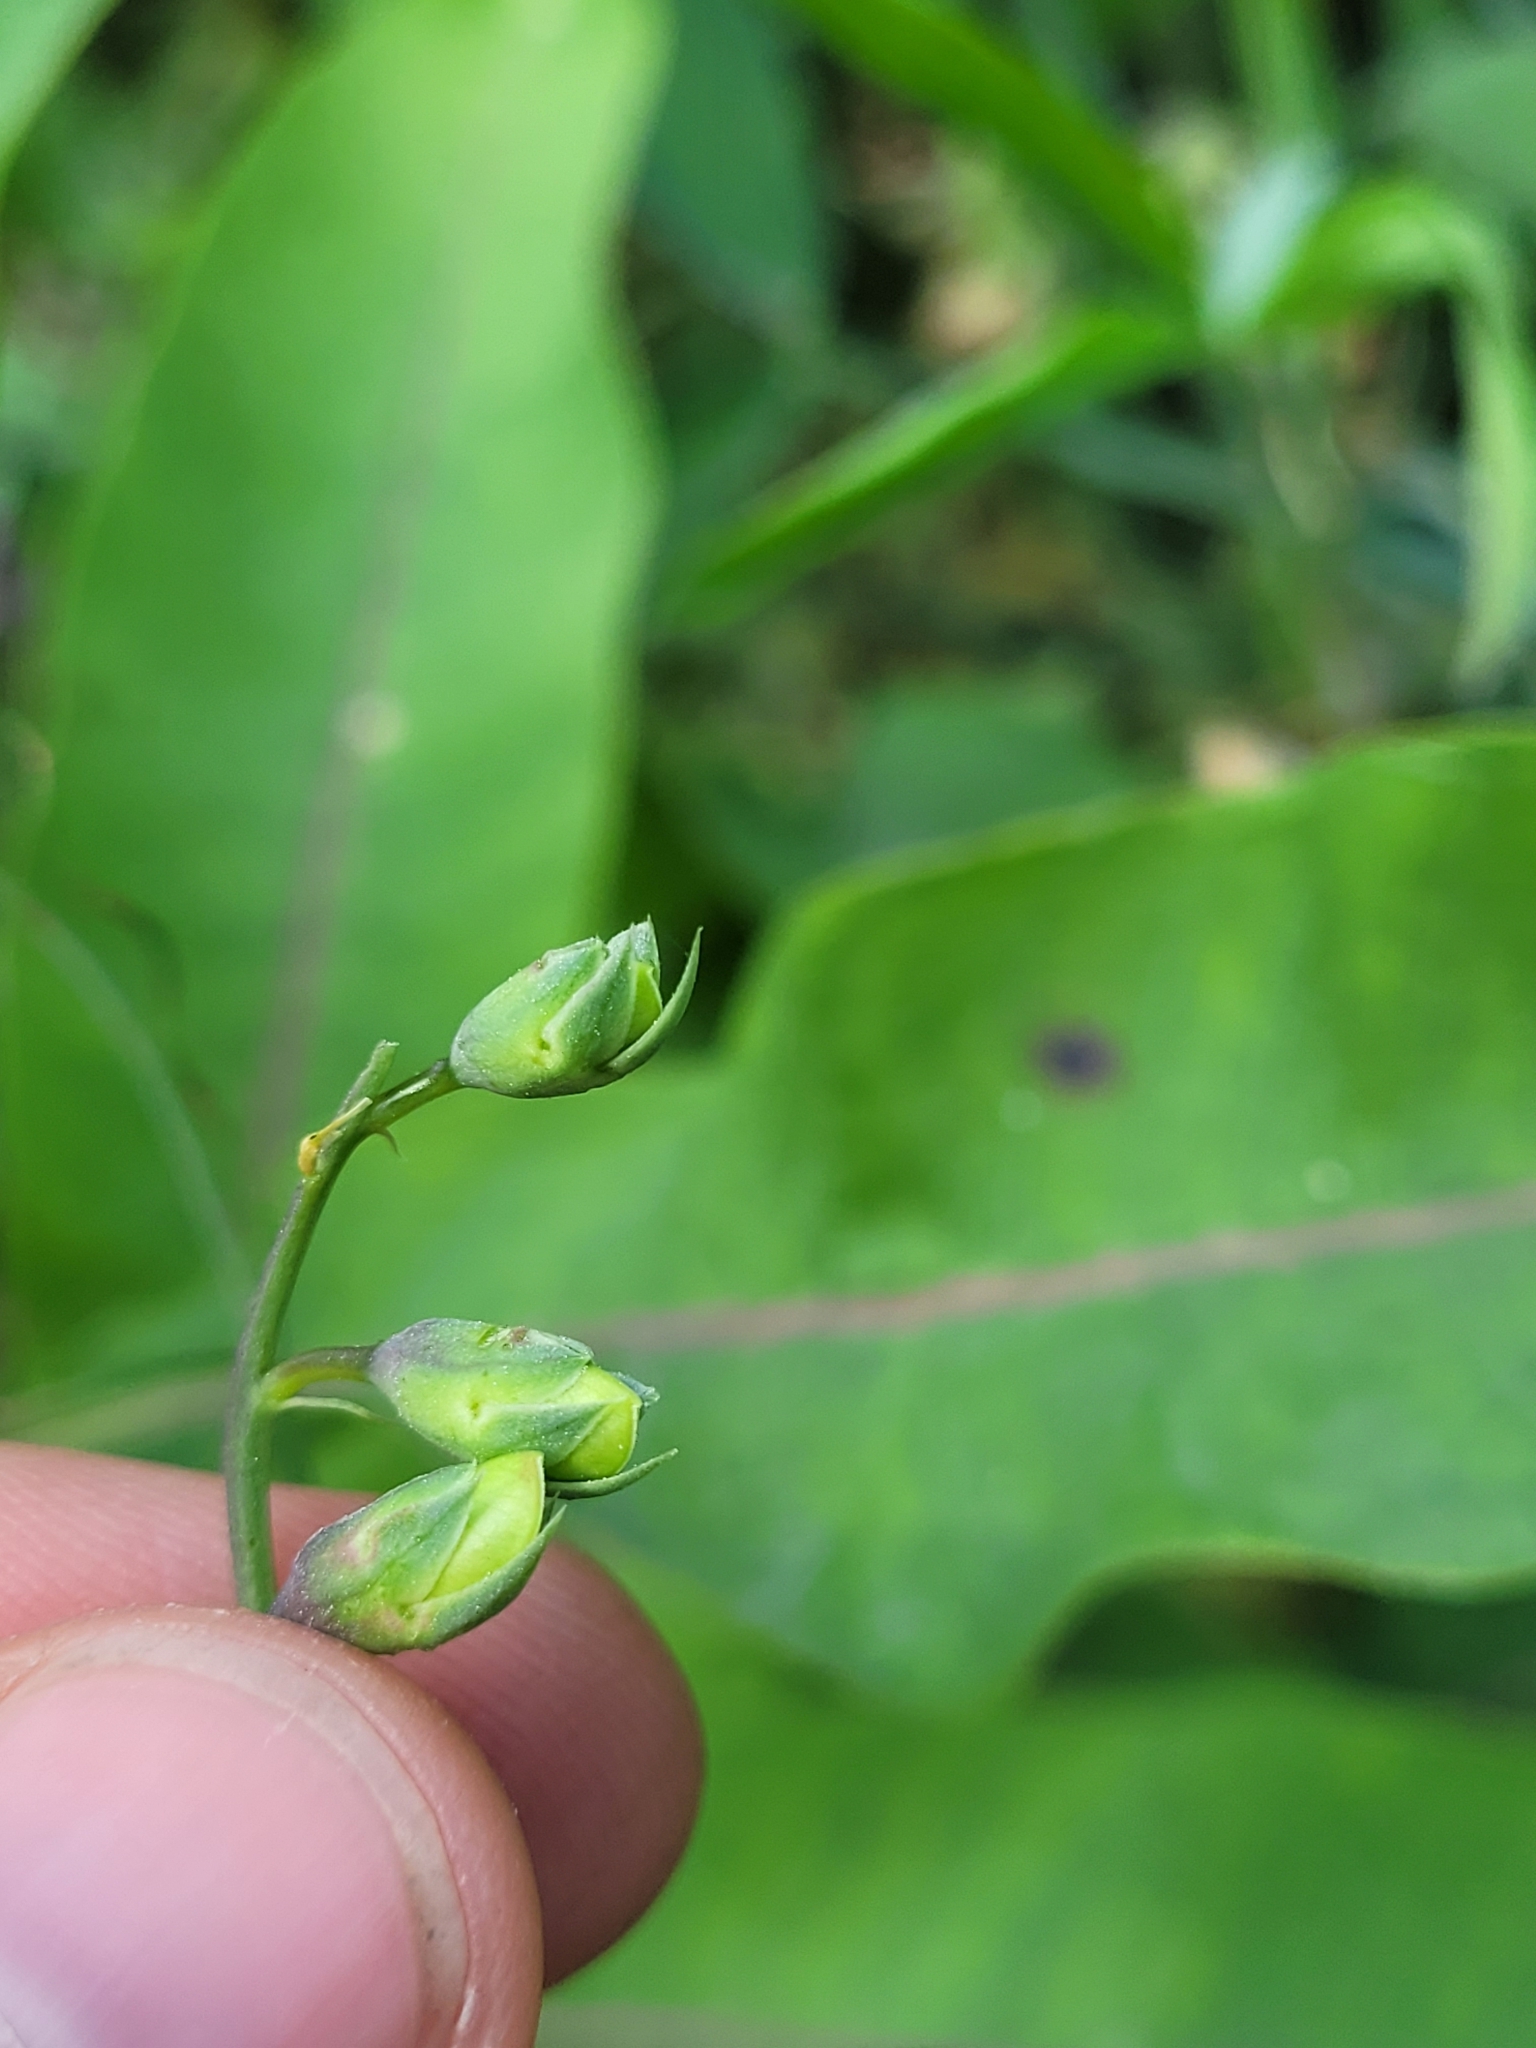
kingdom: Plantae
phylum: Tracheophyta
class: Magnoliopsida
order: Fabales
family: Fabaceae
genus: Lathyrus
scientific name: Lathyrus latifolius
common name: Perennial pea
